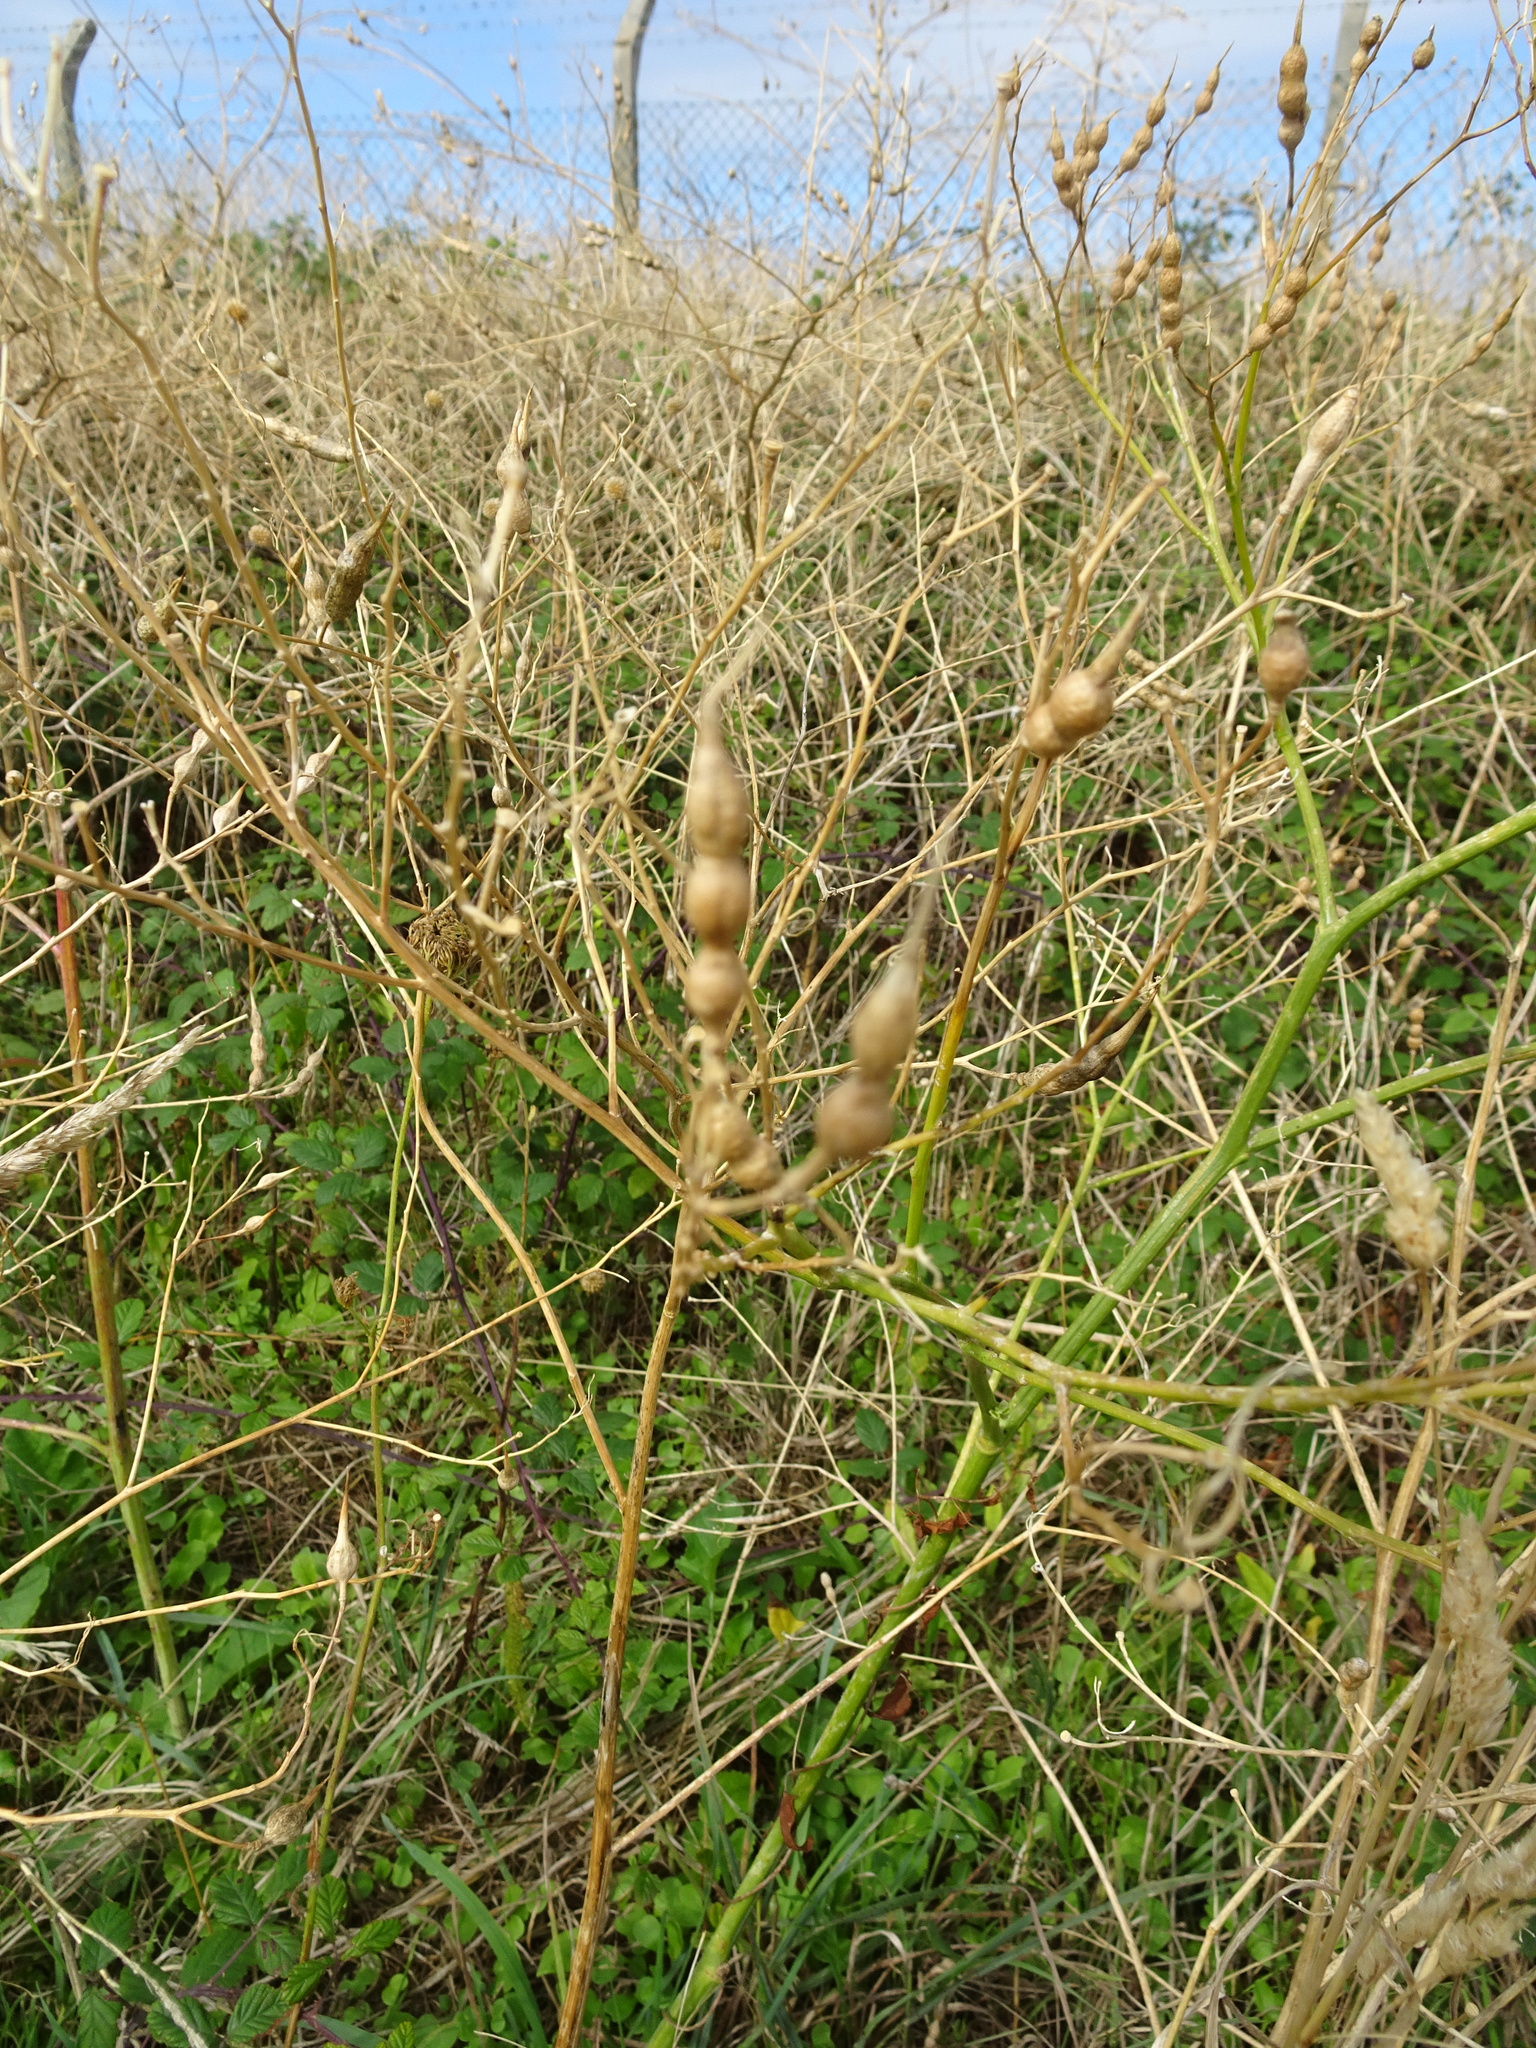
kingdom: Plantae
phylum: Tracheophyta
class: Magnoliopsida
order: Brassicales
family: Brassicaceae
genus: Raphanus
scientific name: Raphanus raphanistrum
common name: Wild radish
